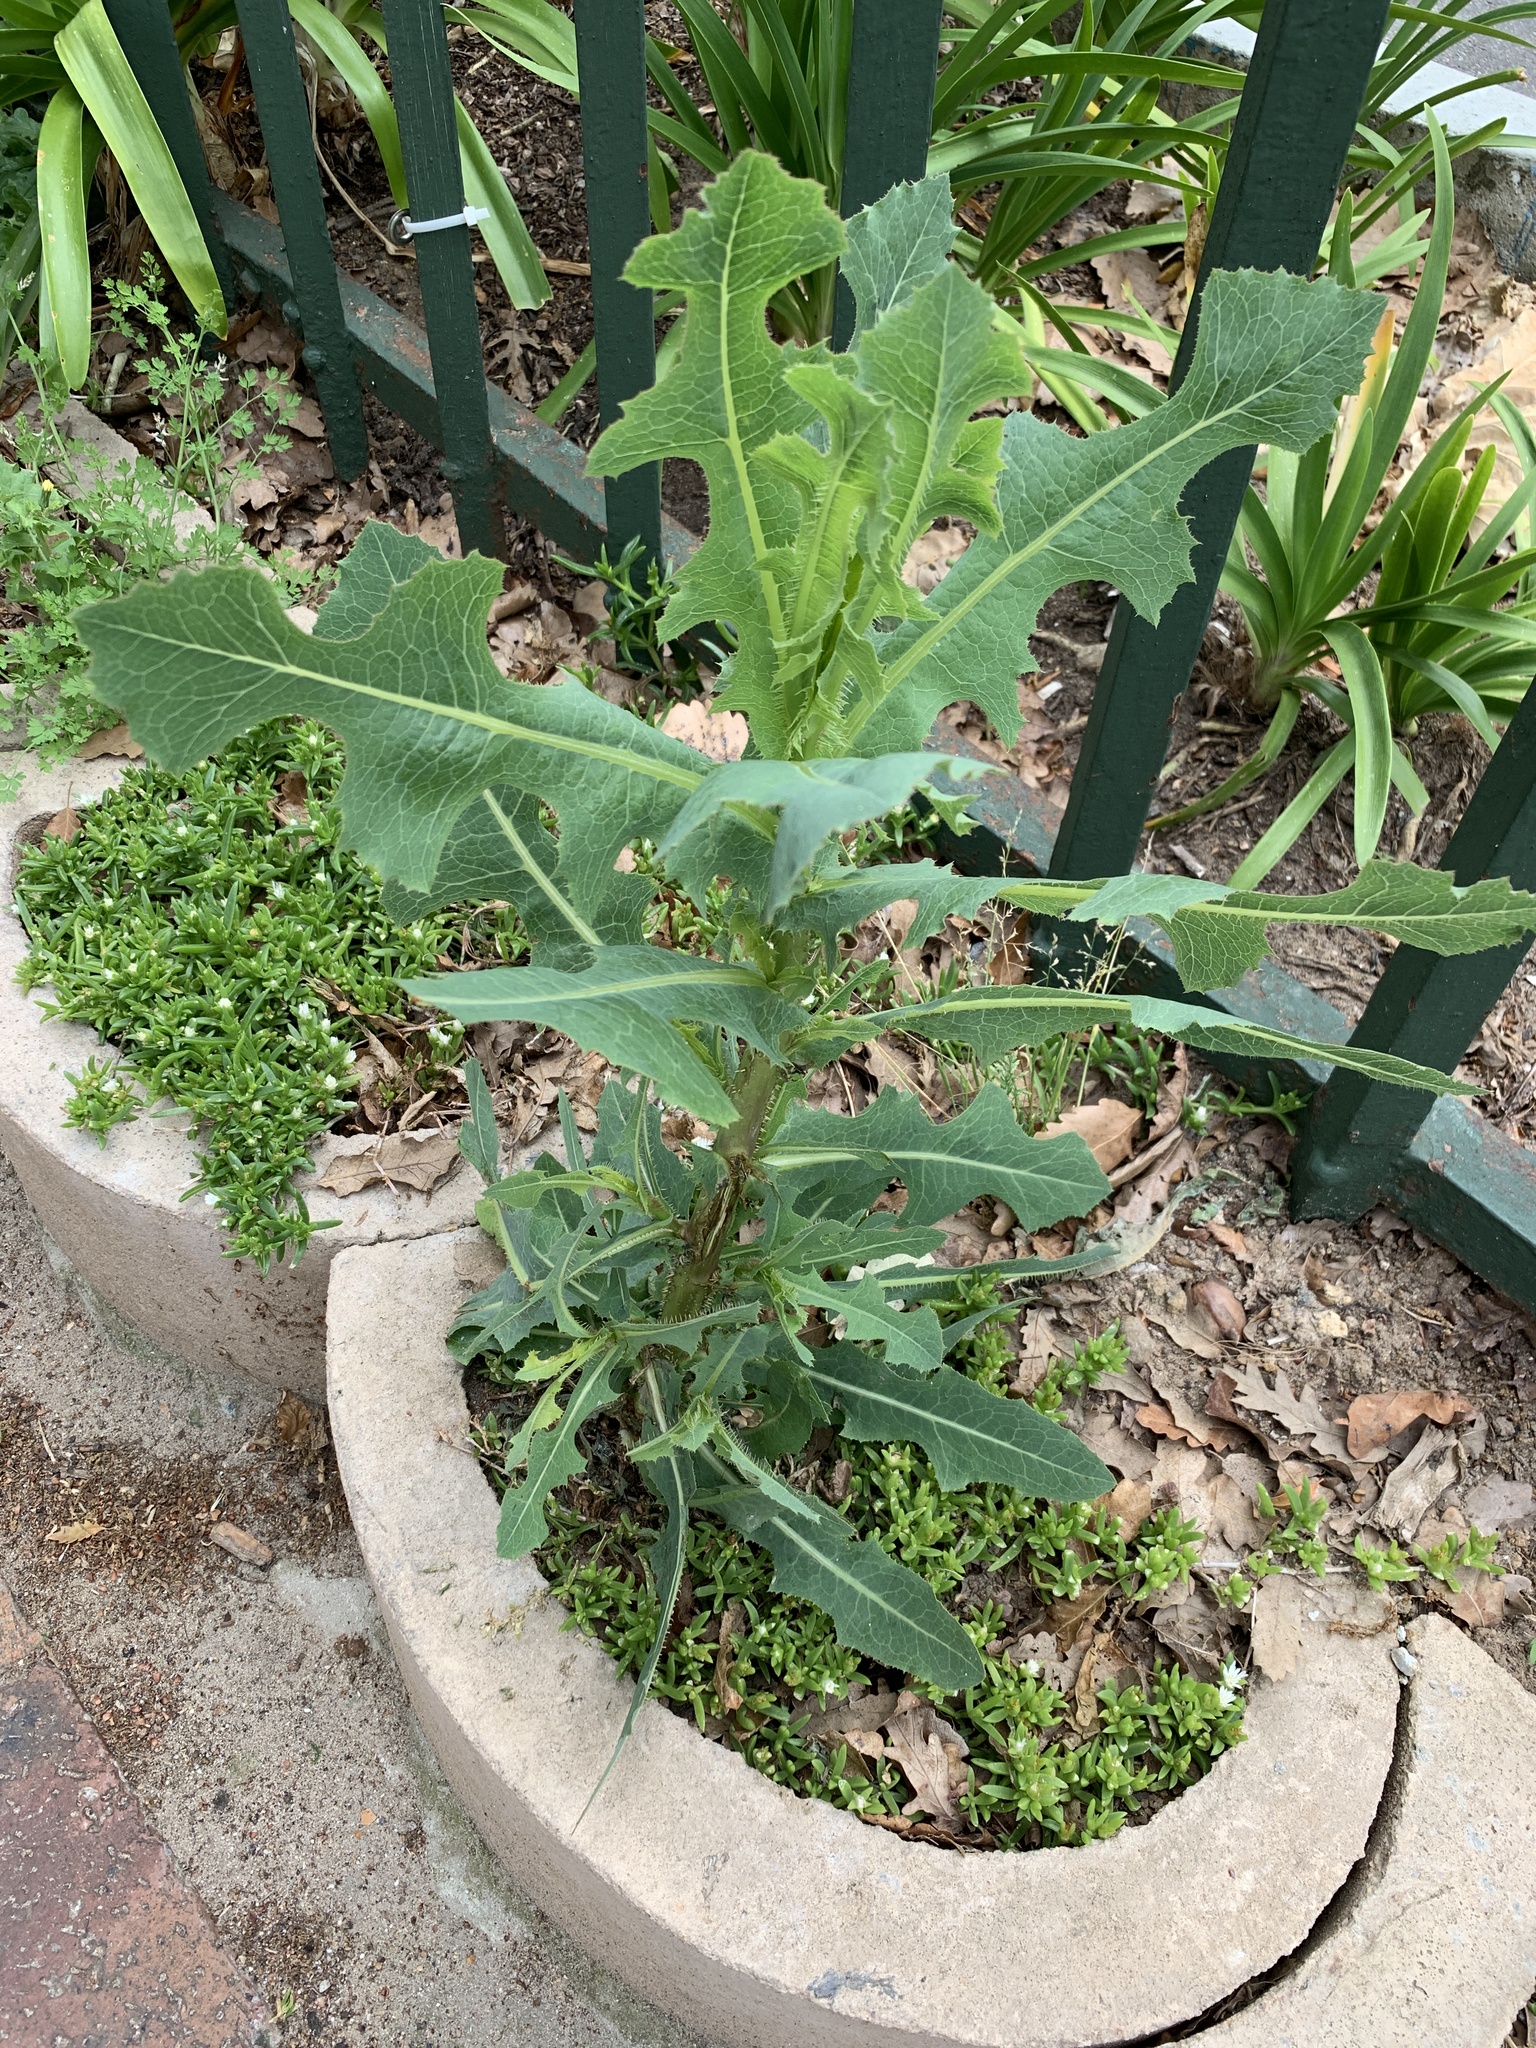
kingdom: Plantae
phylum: Tracheophyta
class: Magnoliopsida
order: Asterales
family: Asteraceae
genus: Lactuca
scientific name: Lactuca serriola
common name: Prickly lettuce
